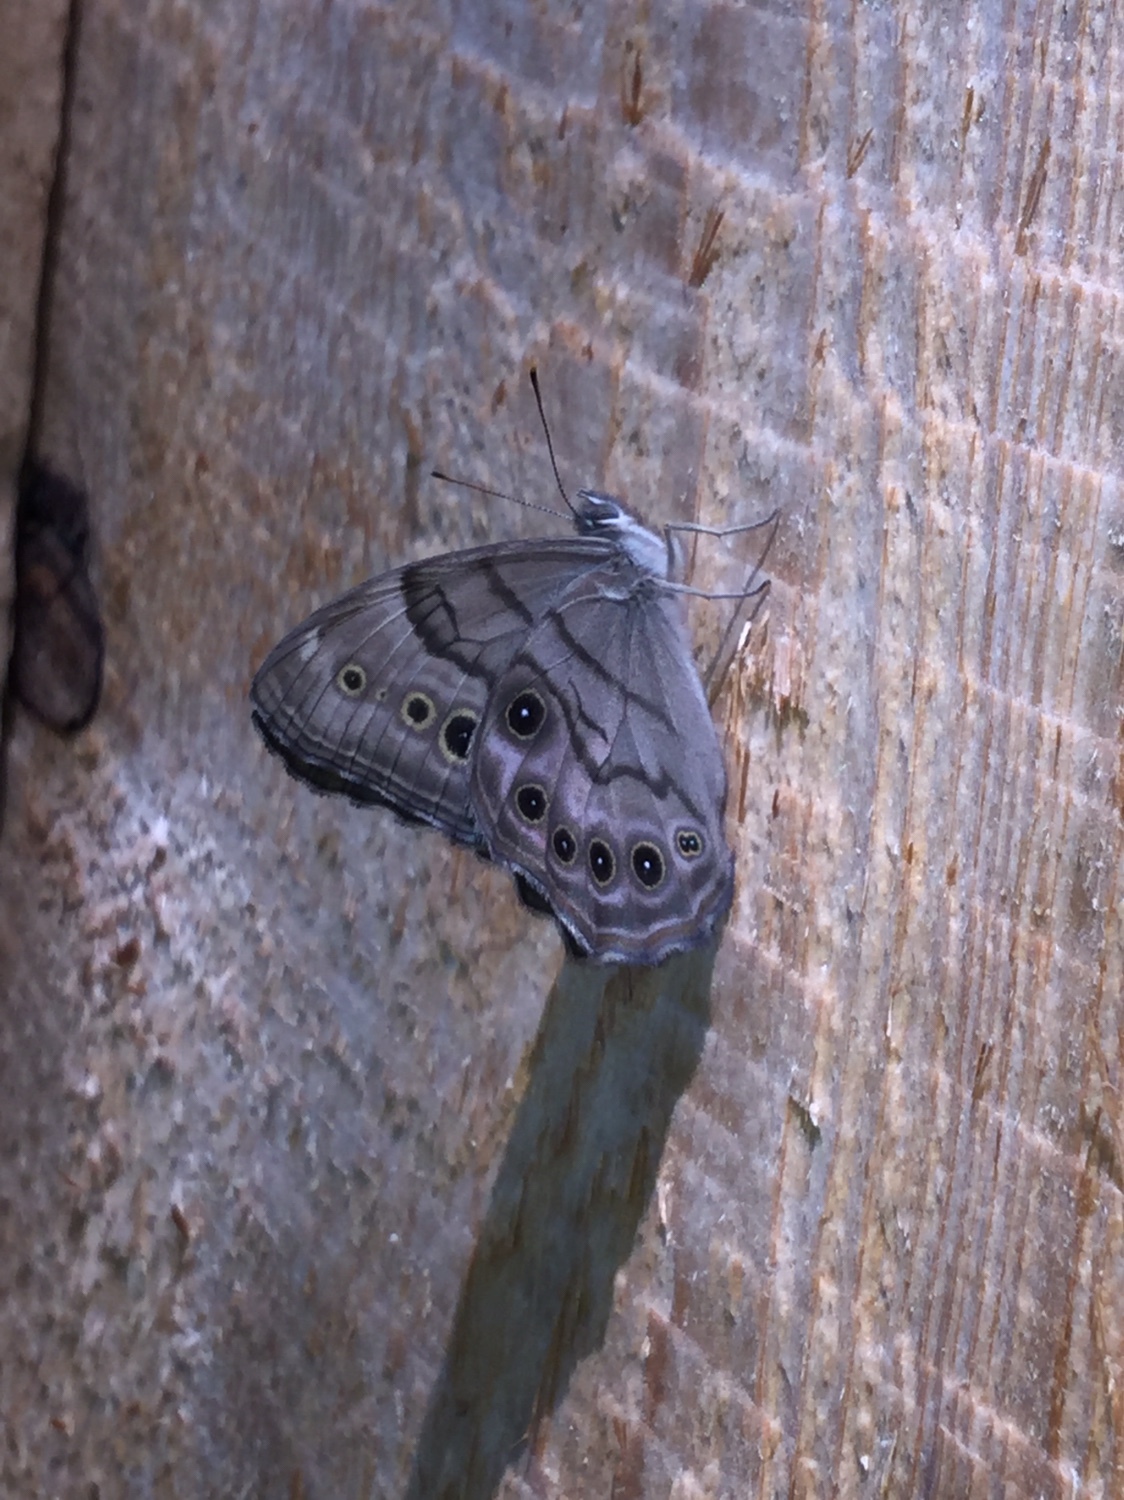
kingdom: Animalia
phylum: Arthropoda
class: Insecta
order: Lepidoptera
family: Nymphalidae
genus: Lethe
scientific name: Lethe anthedon
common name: Northern pearly-eye
